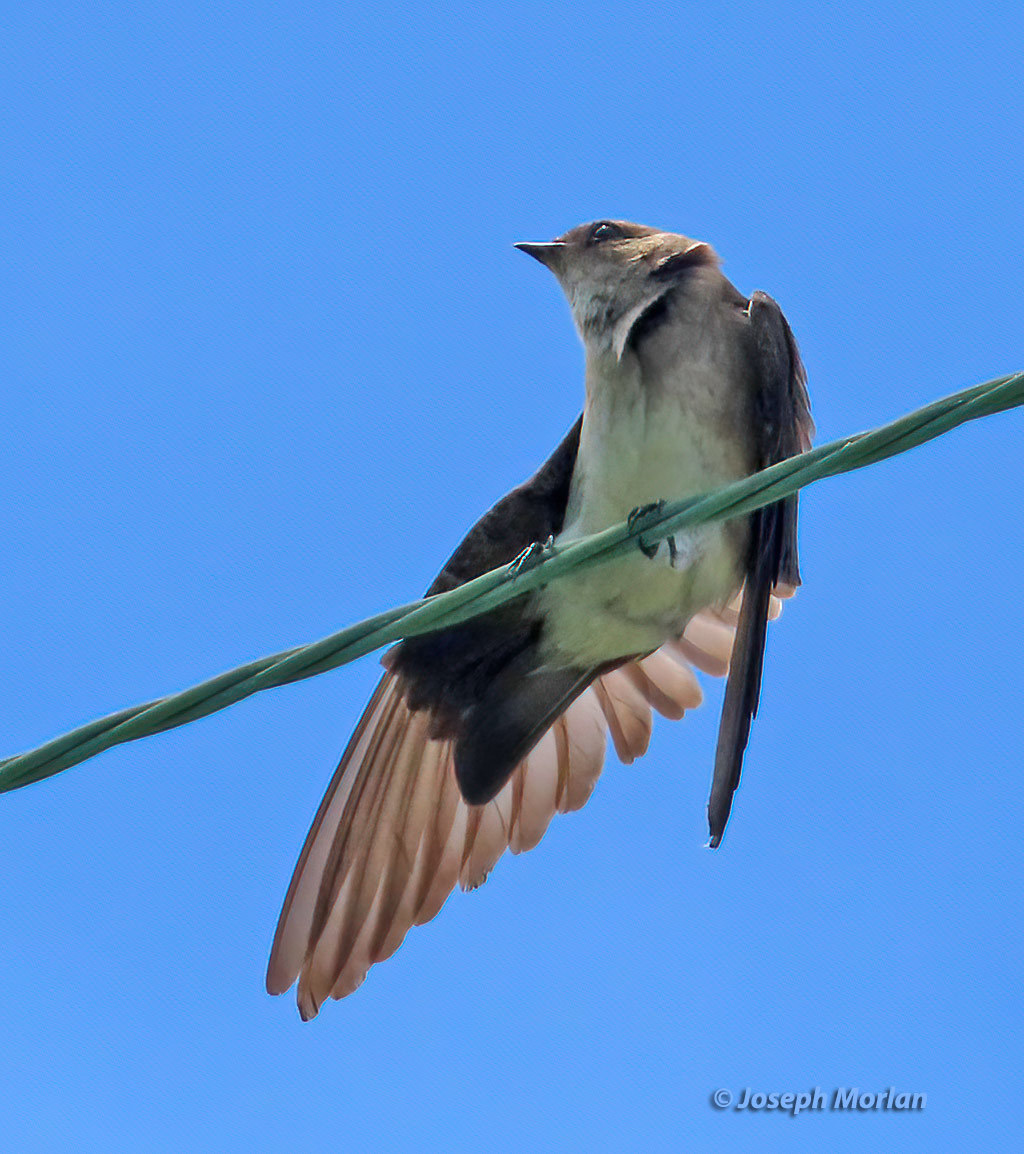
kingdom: Animalia
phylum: Chordata
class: Aves
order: Passeriformes
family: Hirundinidae
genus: Stelgidopteryx
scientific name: Stelgidopteryx serripennis
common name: Northern rough-winged swallow
